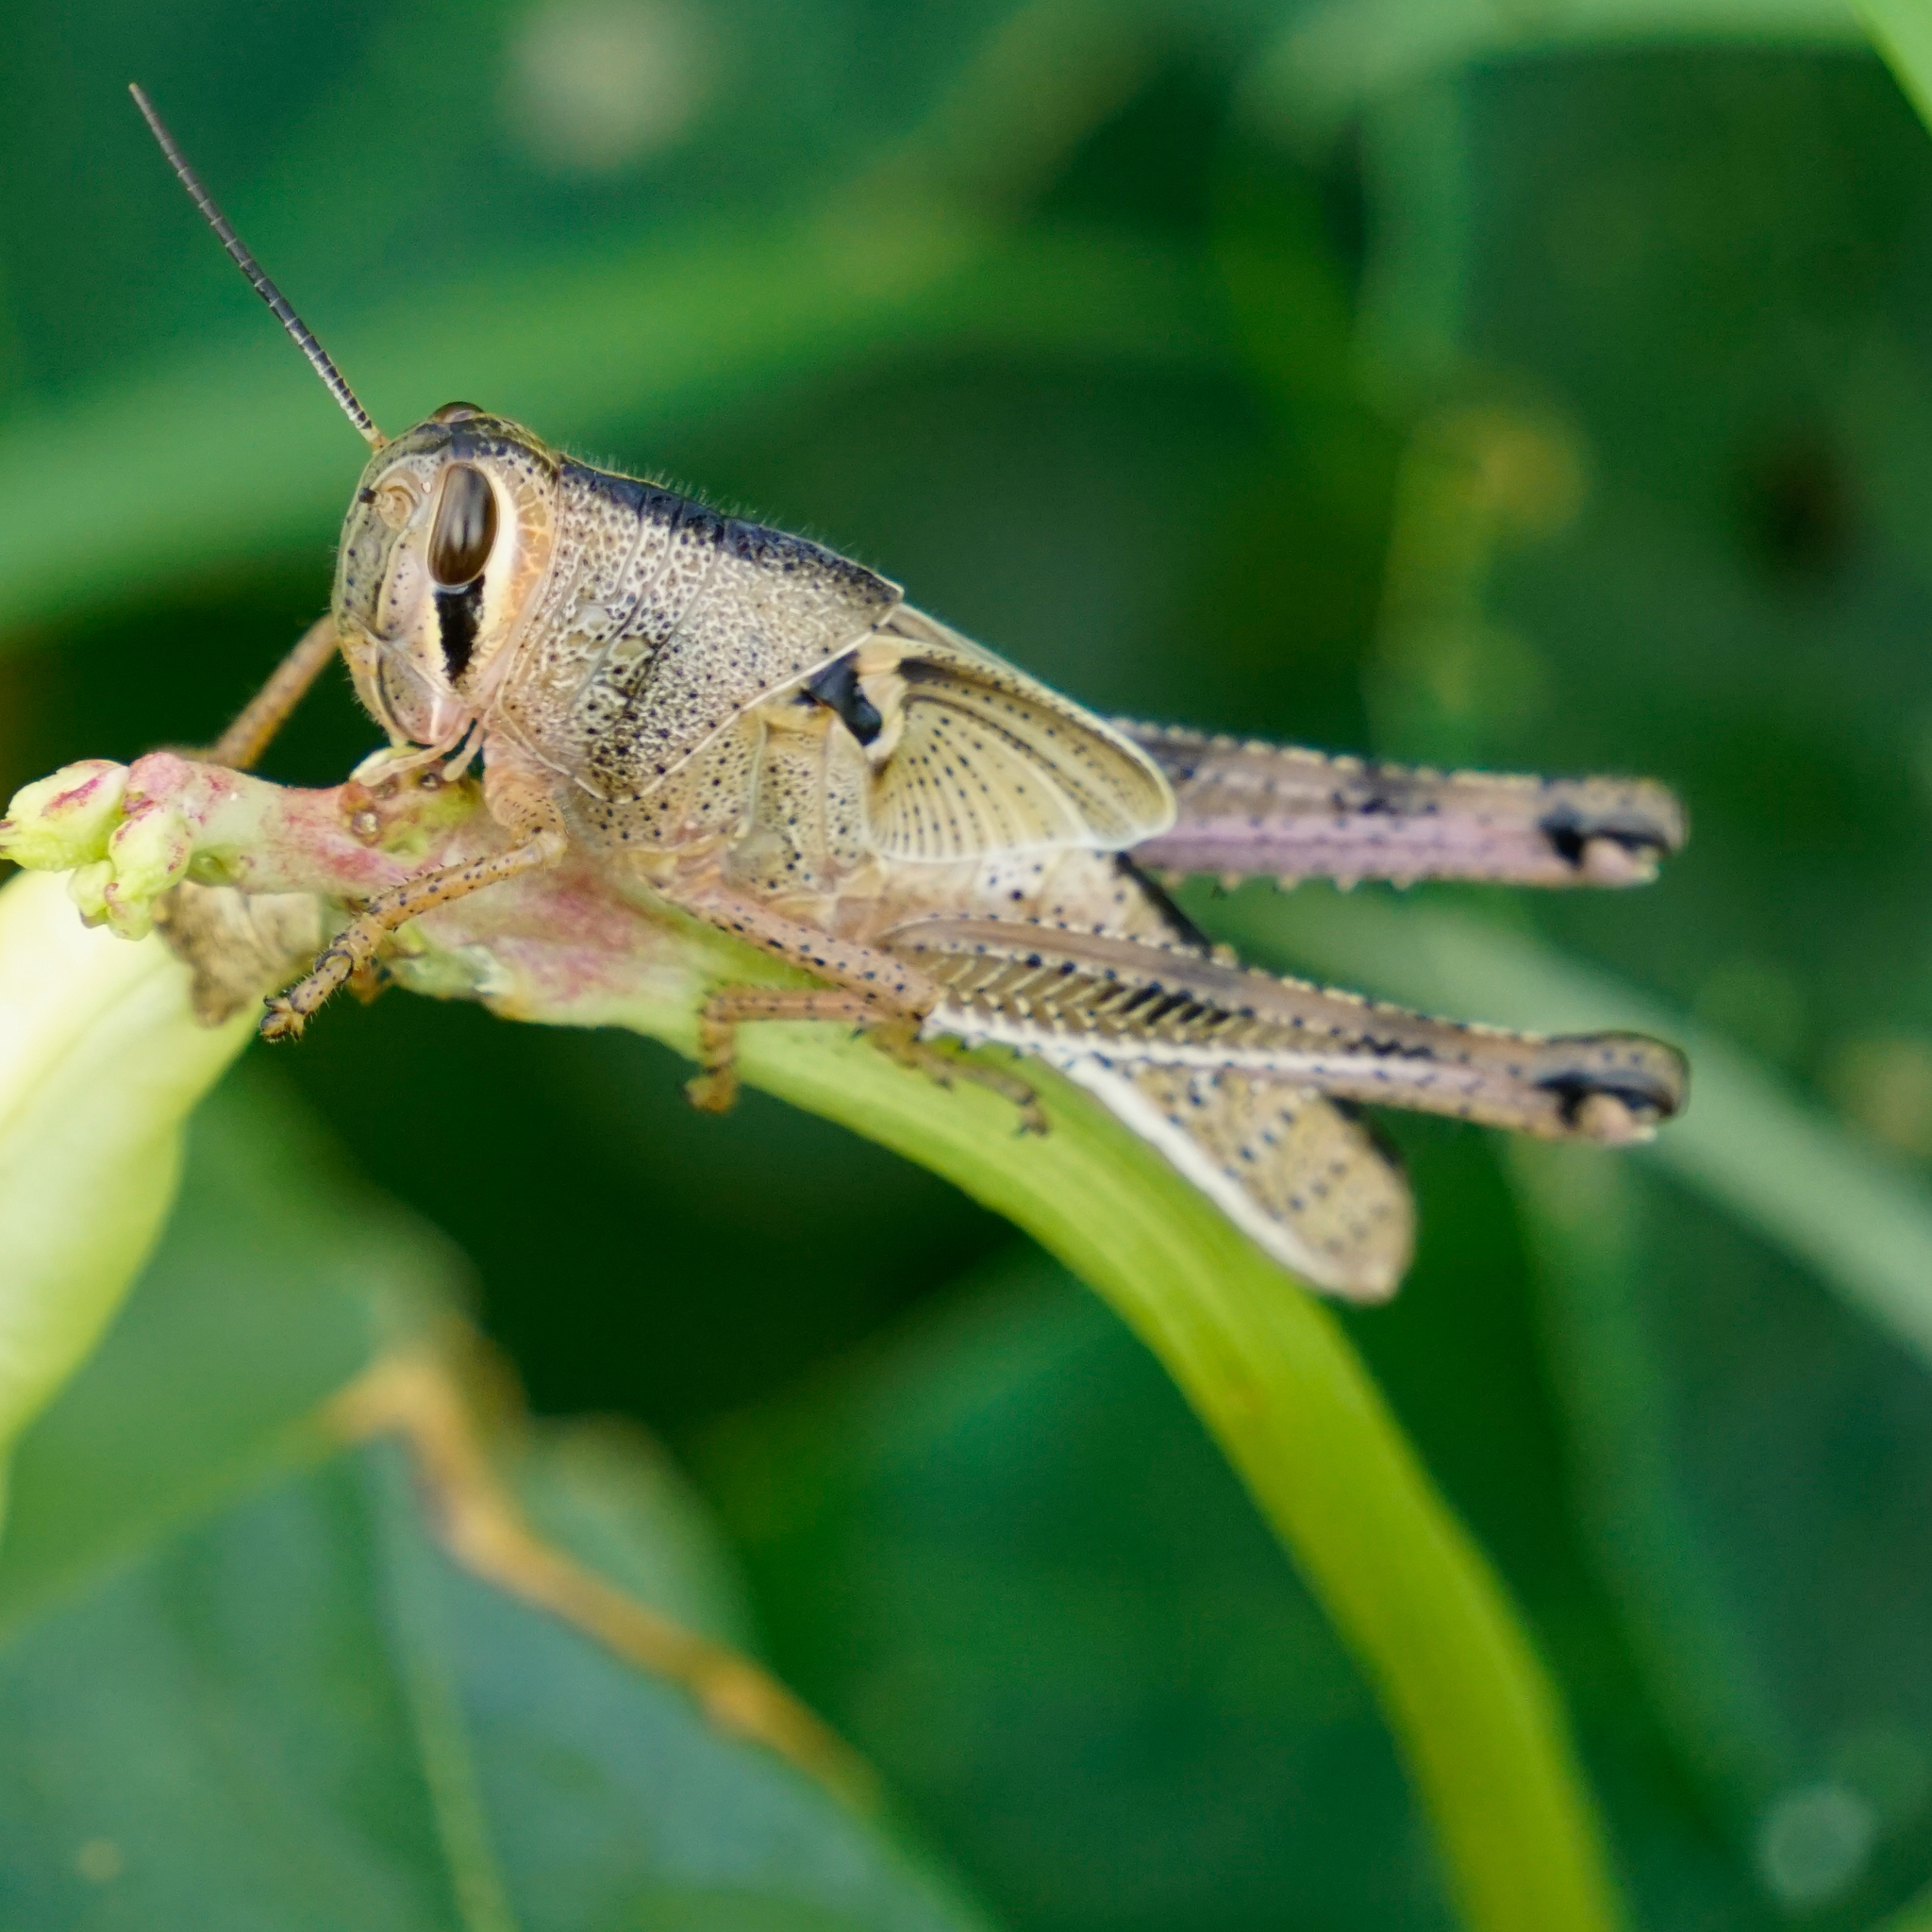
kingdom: Animalia
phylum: Arthropoda
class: Insecta
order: Orthoptera
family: Acrididae
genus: Schistocerca
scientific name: Schistocerca americana
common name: American bird locust
